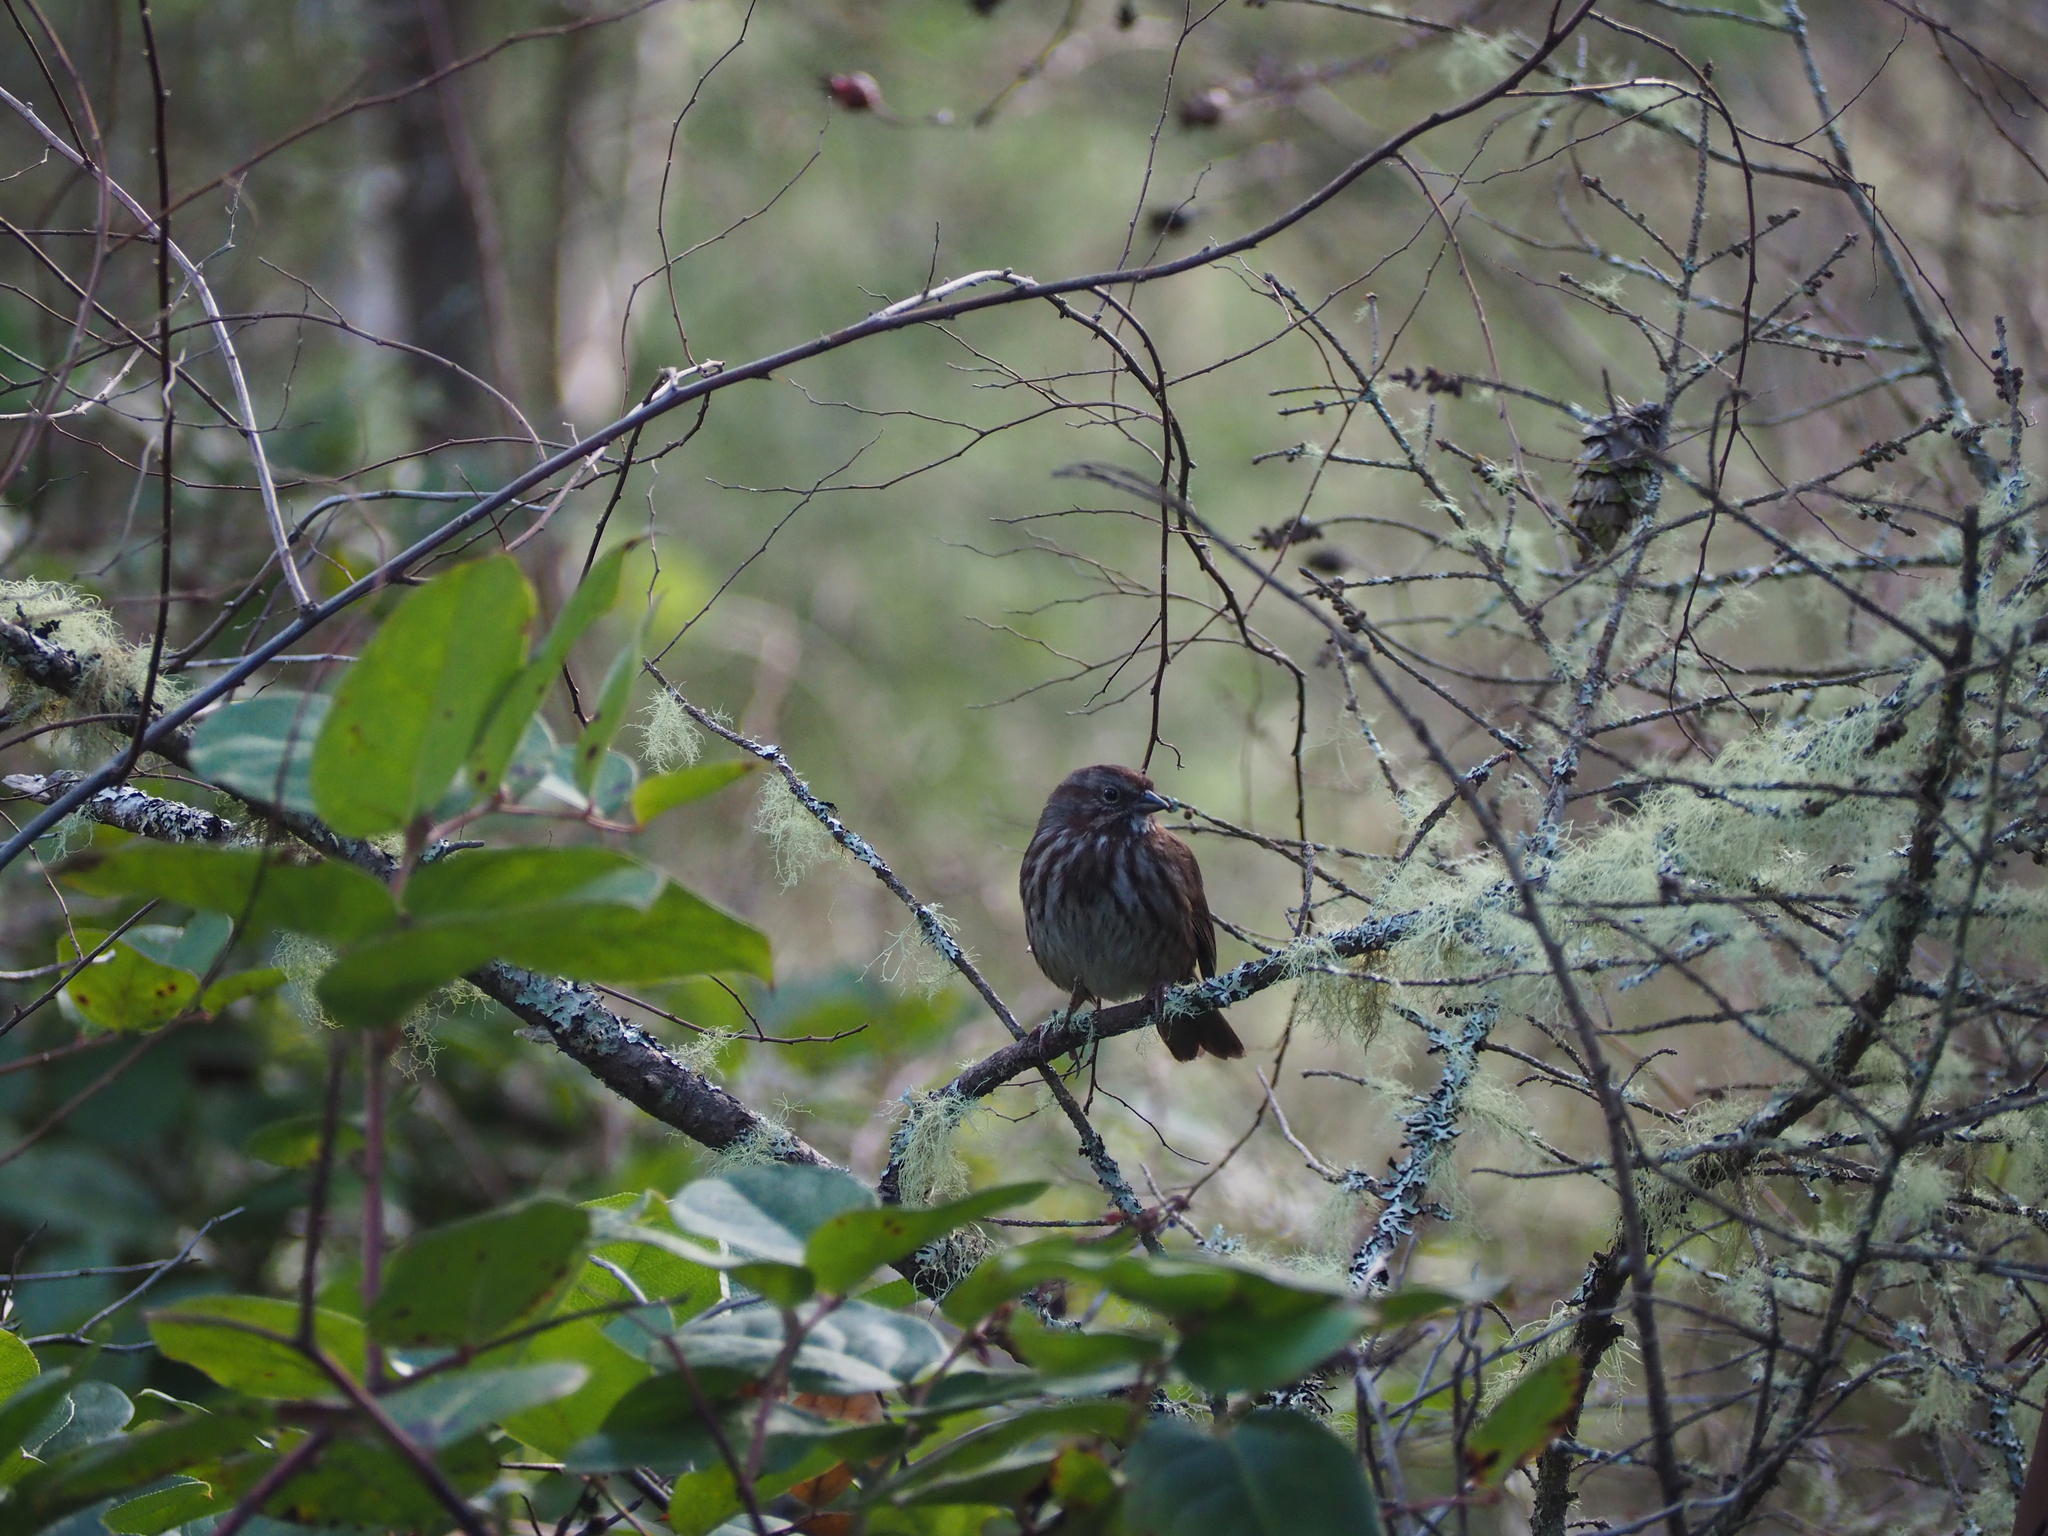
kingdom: Animalia
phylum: Chordata
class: Aves
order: Passeriformes
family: Passerellidae
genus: Melospiza
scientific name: Melospiza melodia
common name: Song sparrow
